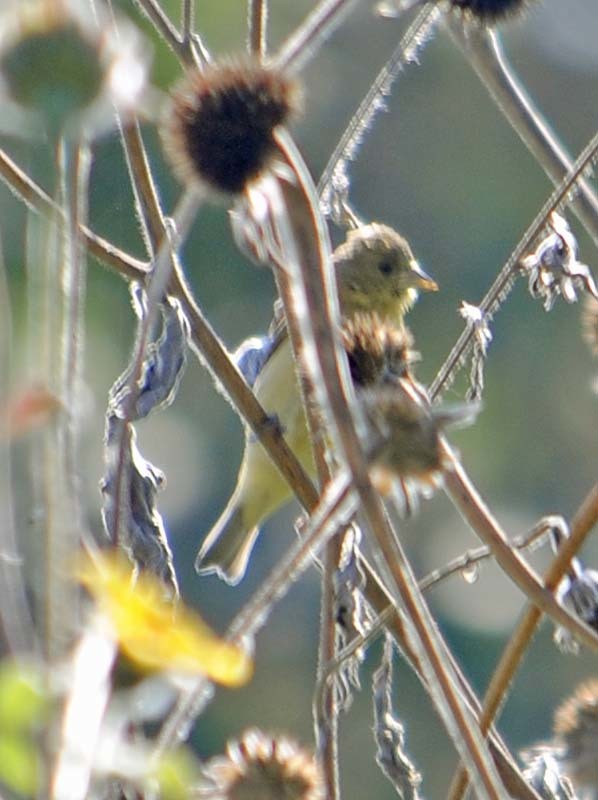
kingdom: Animalia
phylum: Chordata
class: Aves
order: Passeriformes
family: Fringillidae
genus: Spinus
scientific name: Spinus psaltria
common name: Lesser goldfinch
